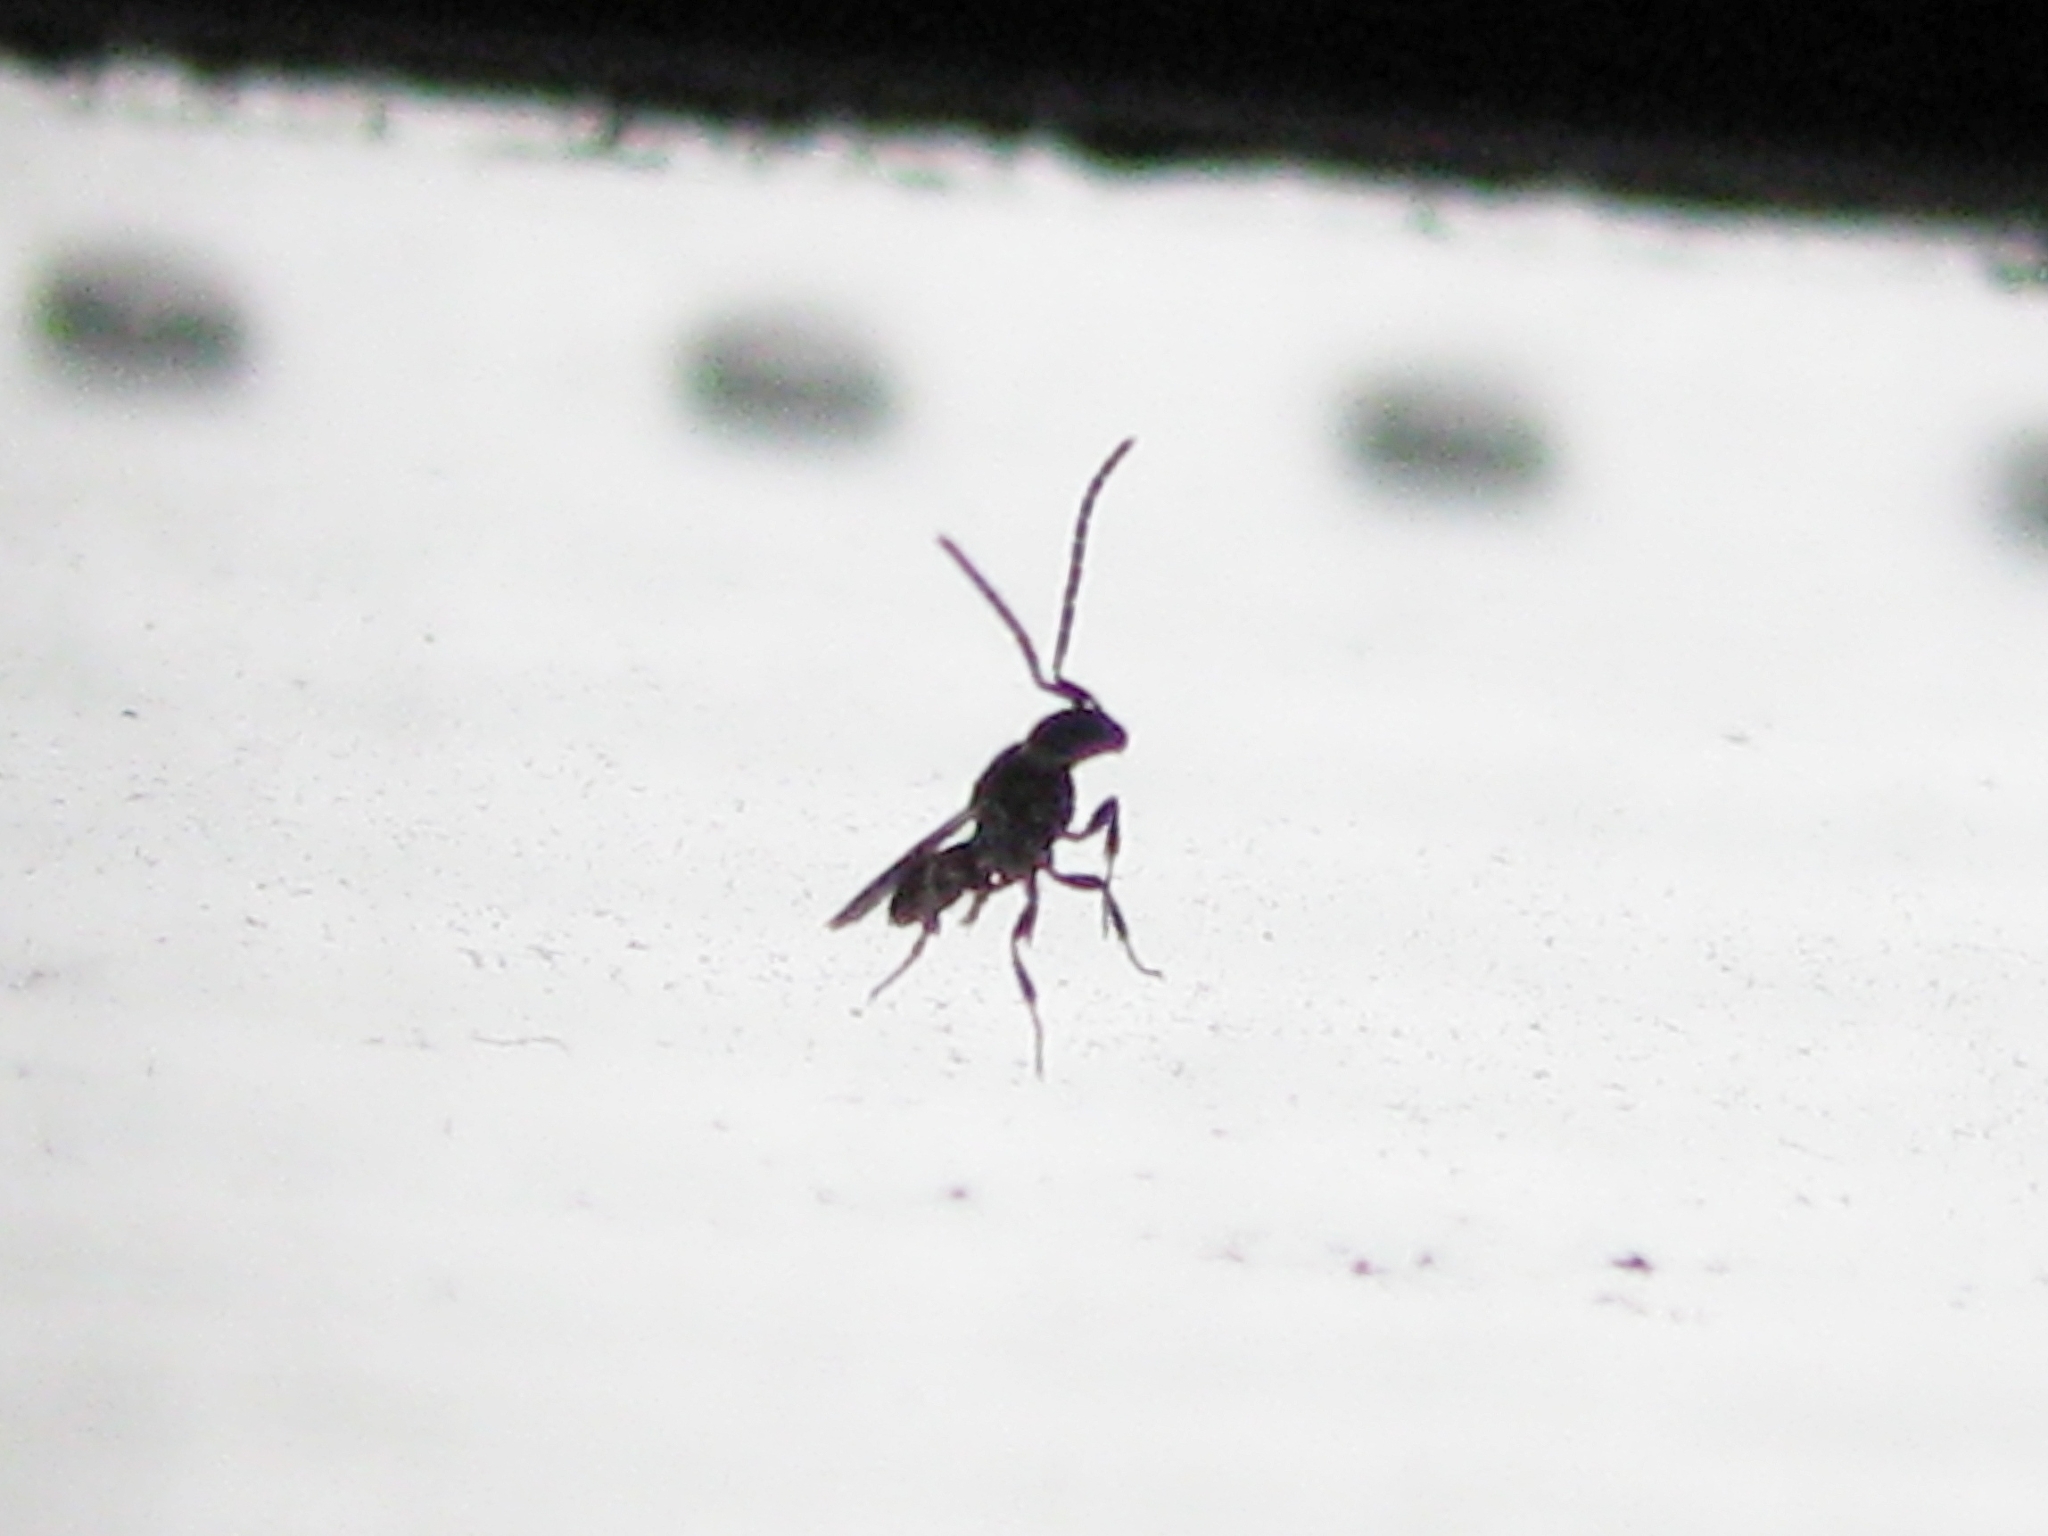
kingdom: Animalia
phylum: Arthropoda
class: Insecta
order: Hymenoptera
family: Scelionidae
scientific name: Scelionidae
